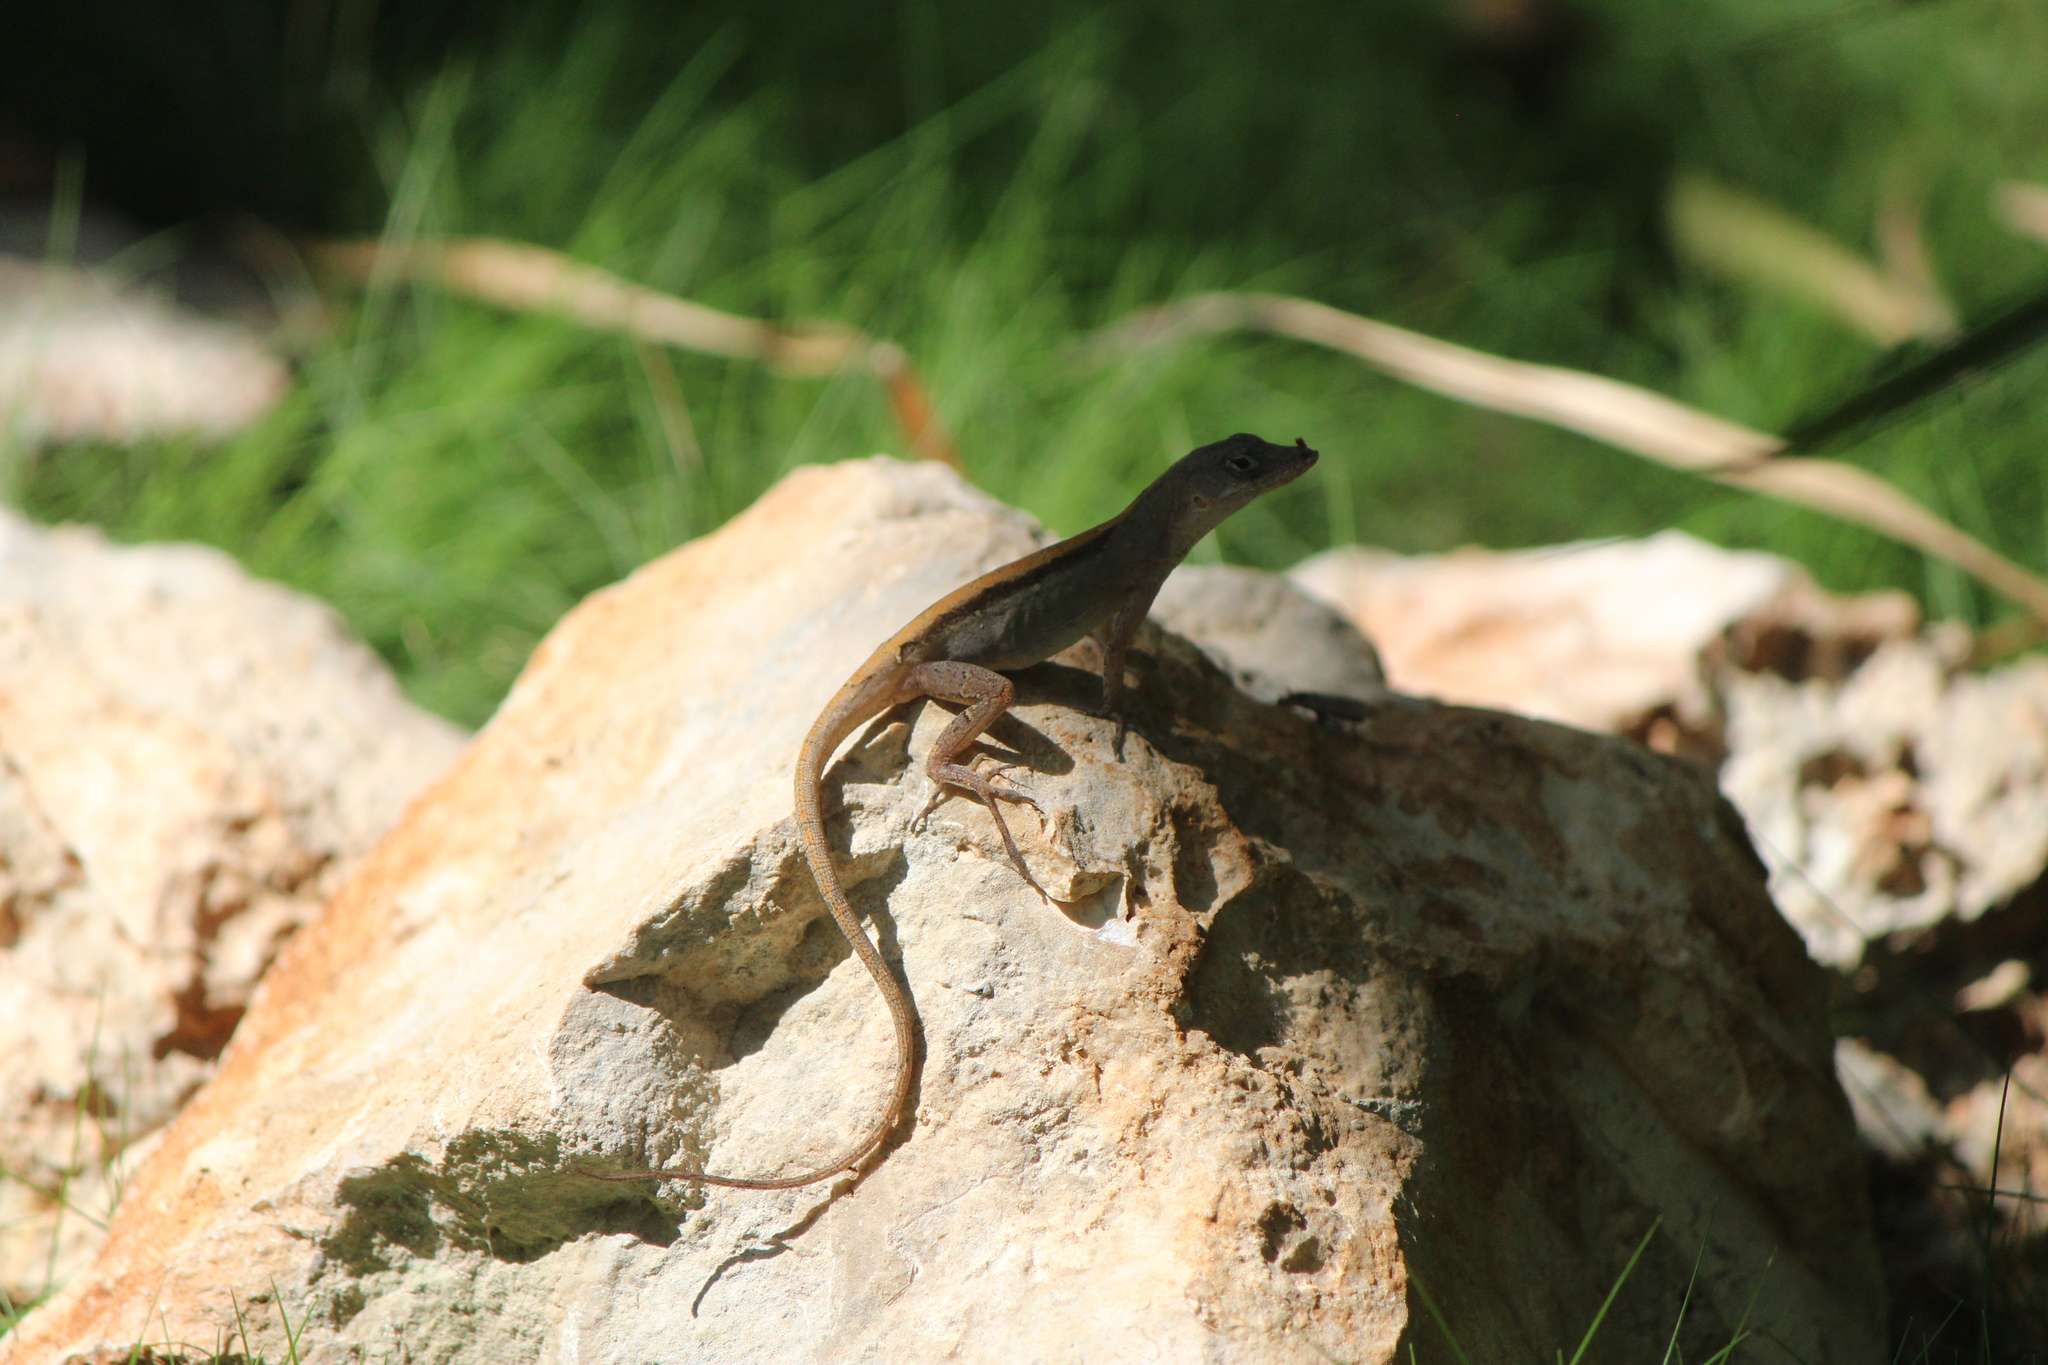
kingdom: Animalia
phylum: Chordata
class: Squamata
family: Dactyloidae
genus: Anolis
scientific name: Anolis sagrei
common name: Brown anole
